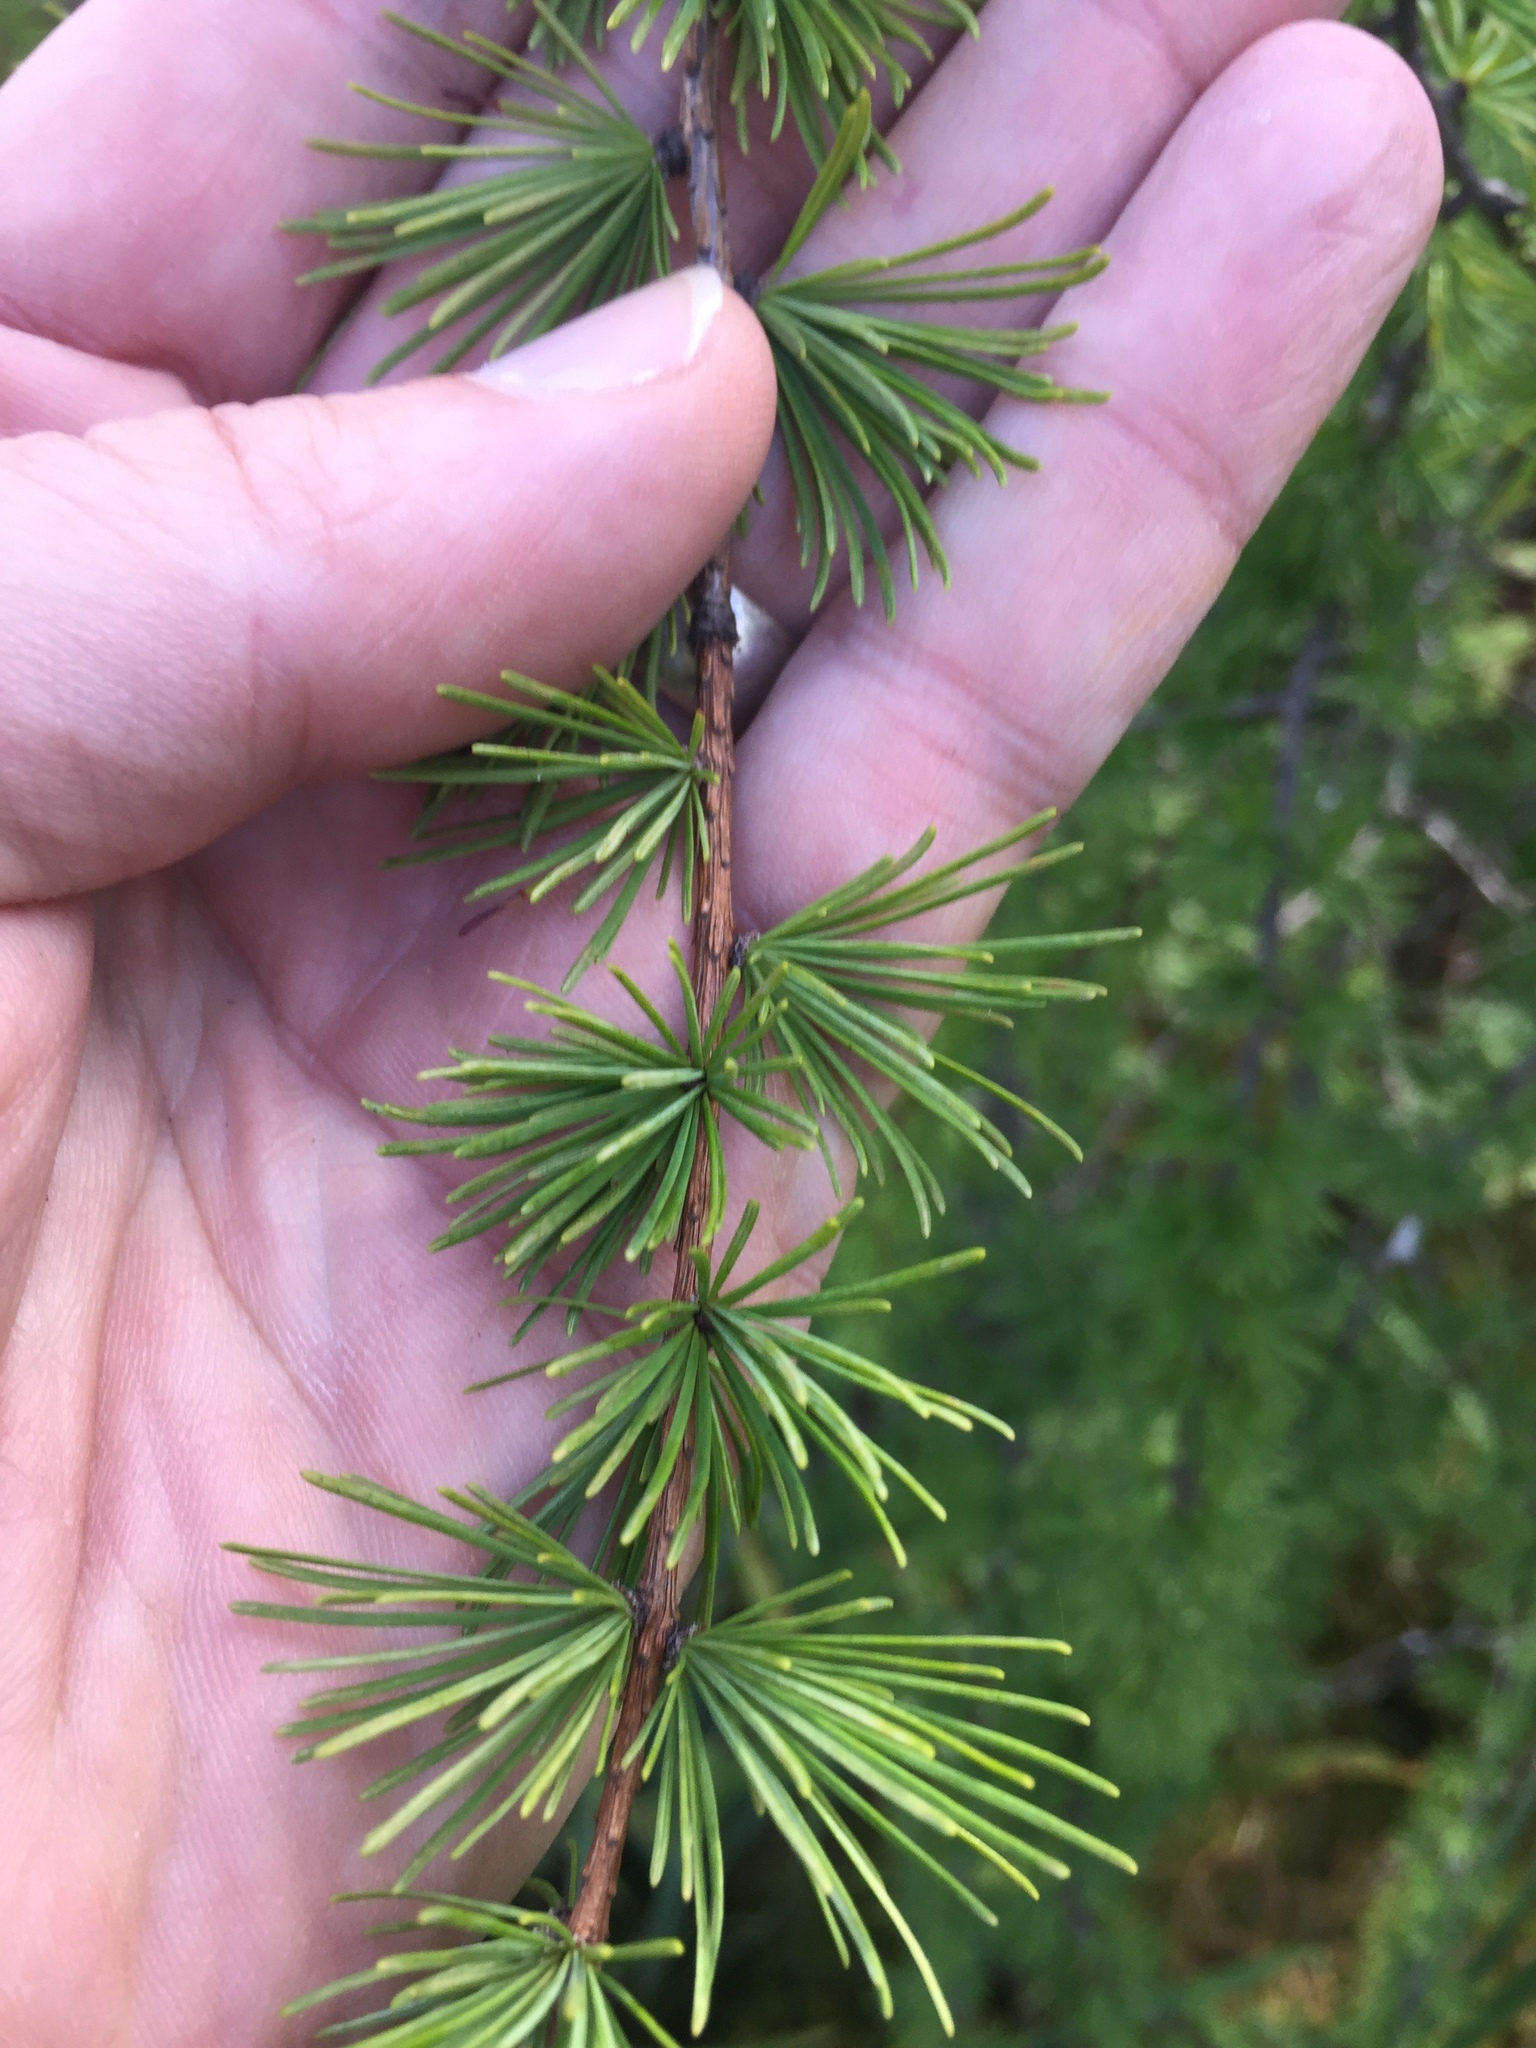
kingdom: Plantae
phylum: Tracheophyta
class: Pinopsida
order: Pinales
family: Pinaceae
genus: Larix
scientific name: Larix laricina
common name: American larch
